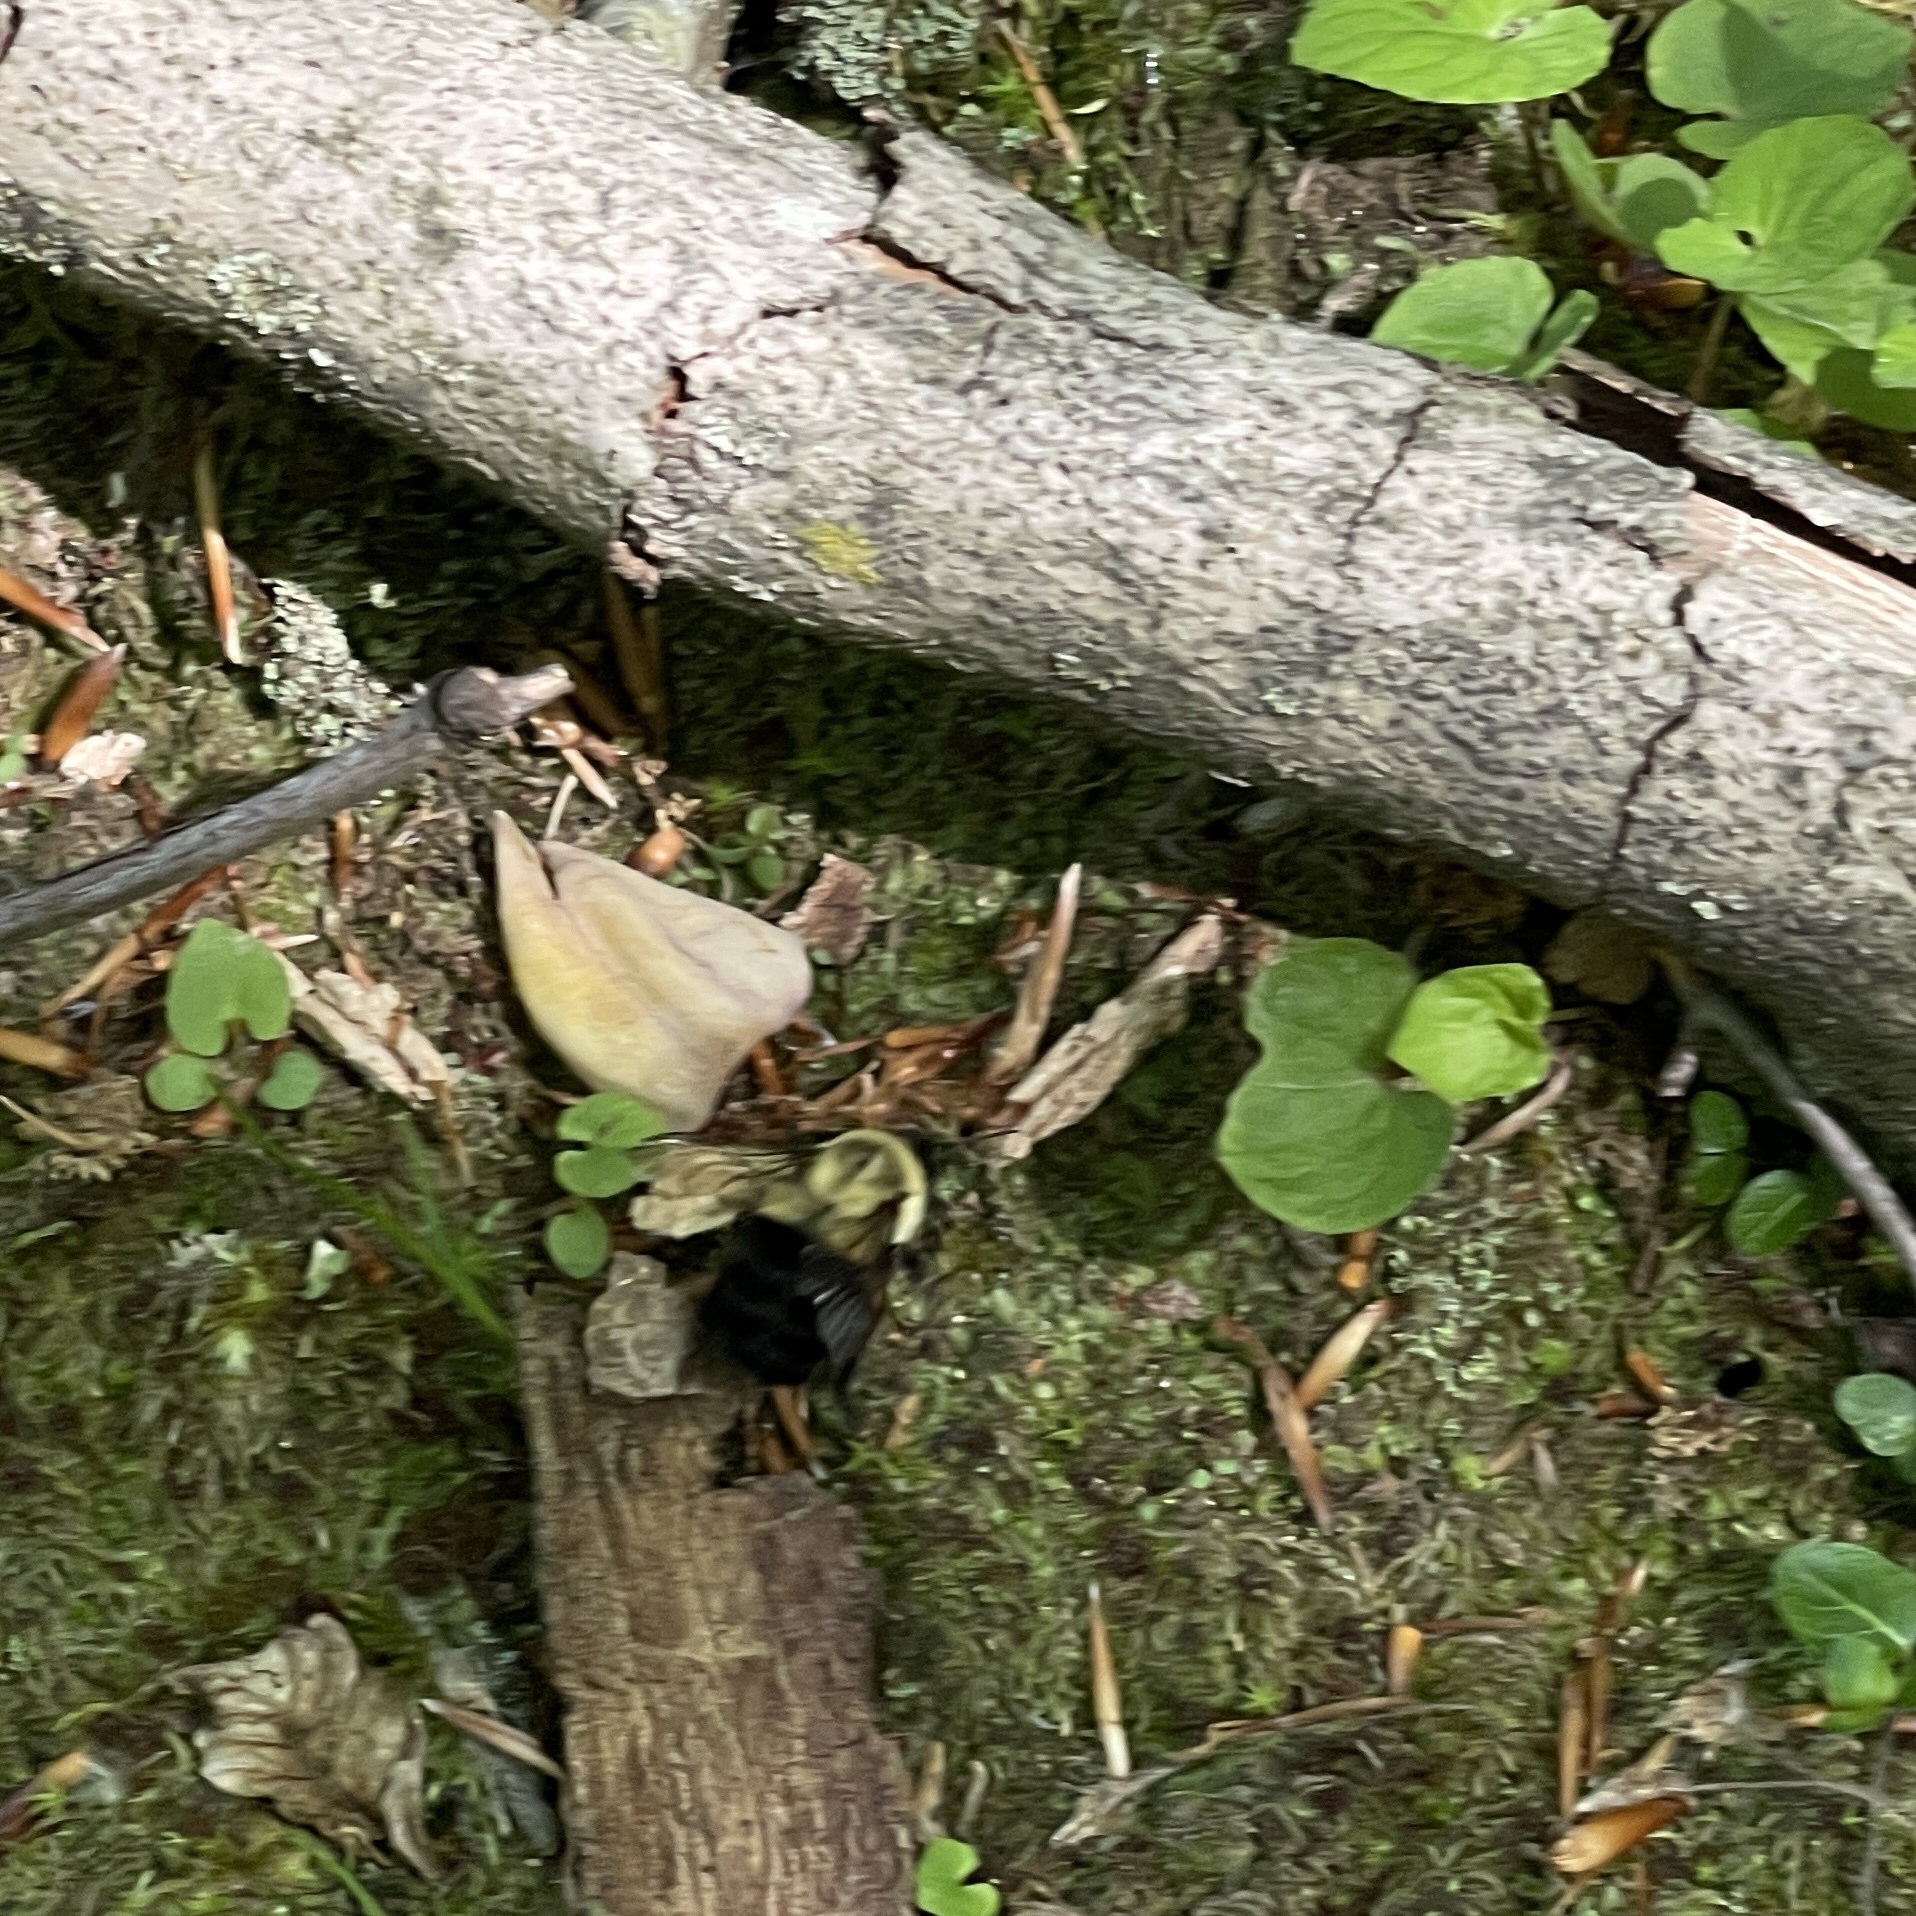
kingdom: Animalia
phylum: Arthropoda
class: Insecta
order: Hymenoptera
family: Apidae
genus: Bombus
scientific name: Bombus impatiens
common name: Common eastern bumble bee
